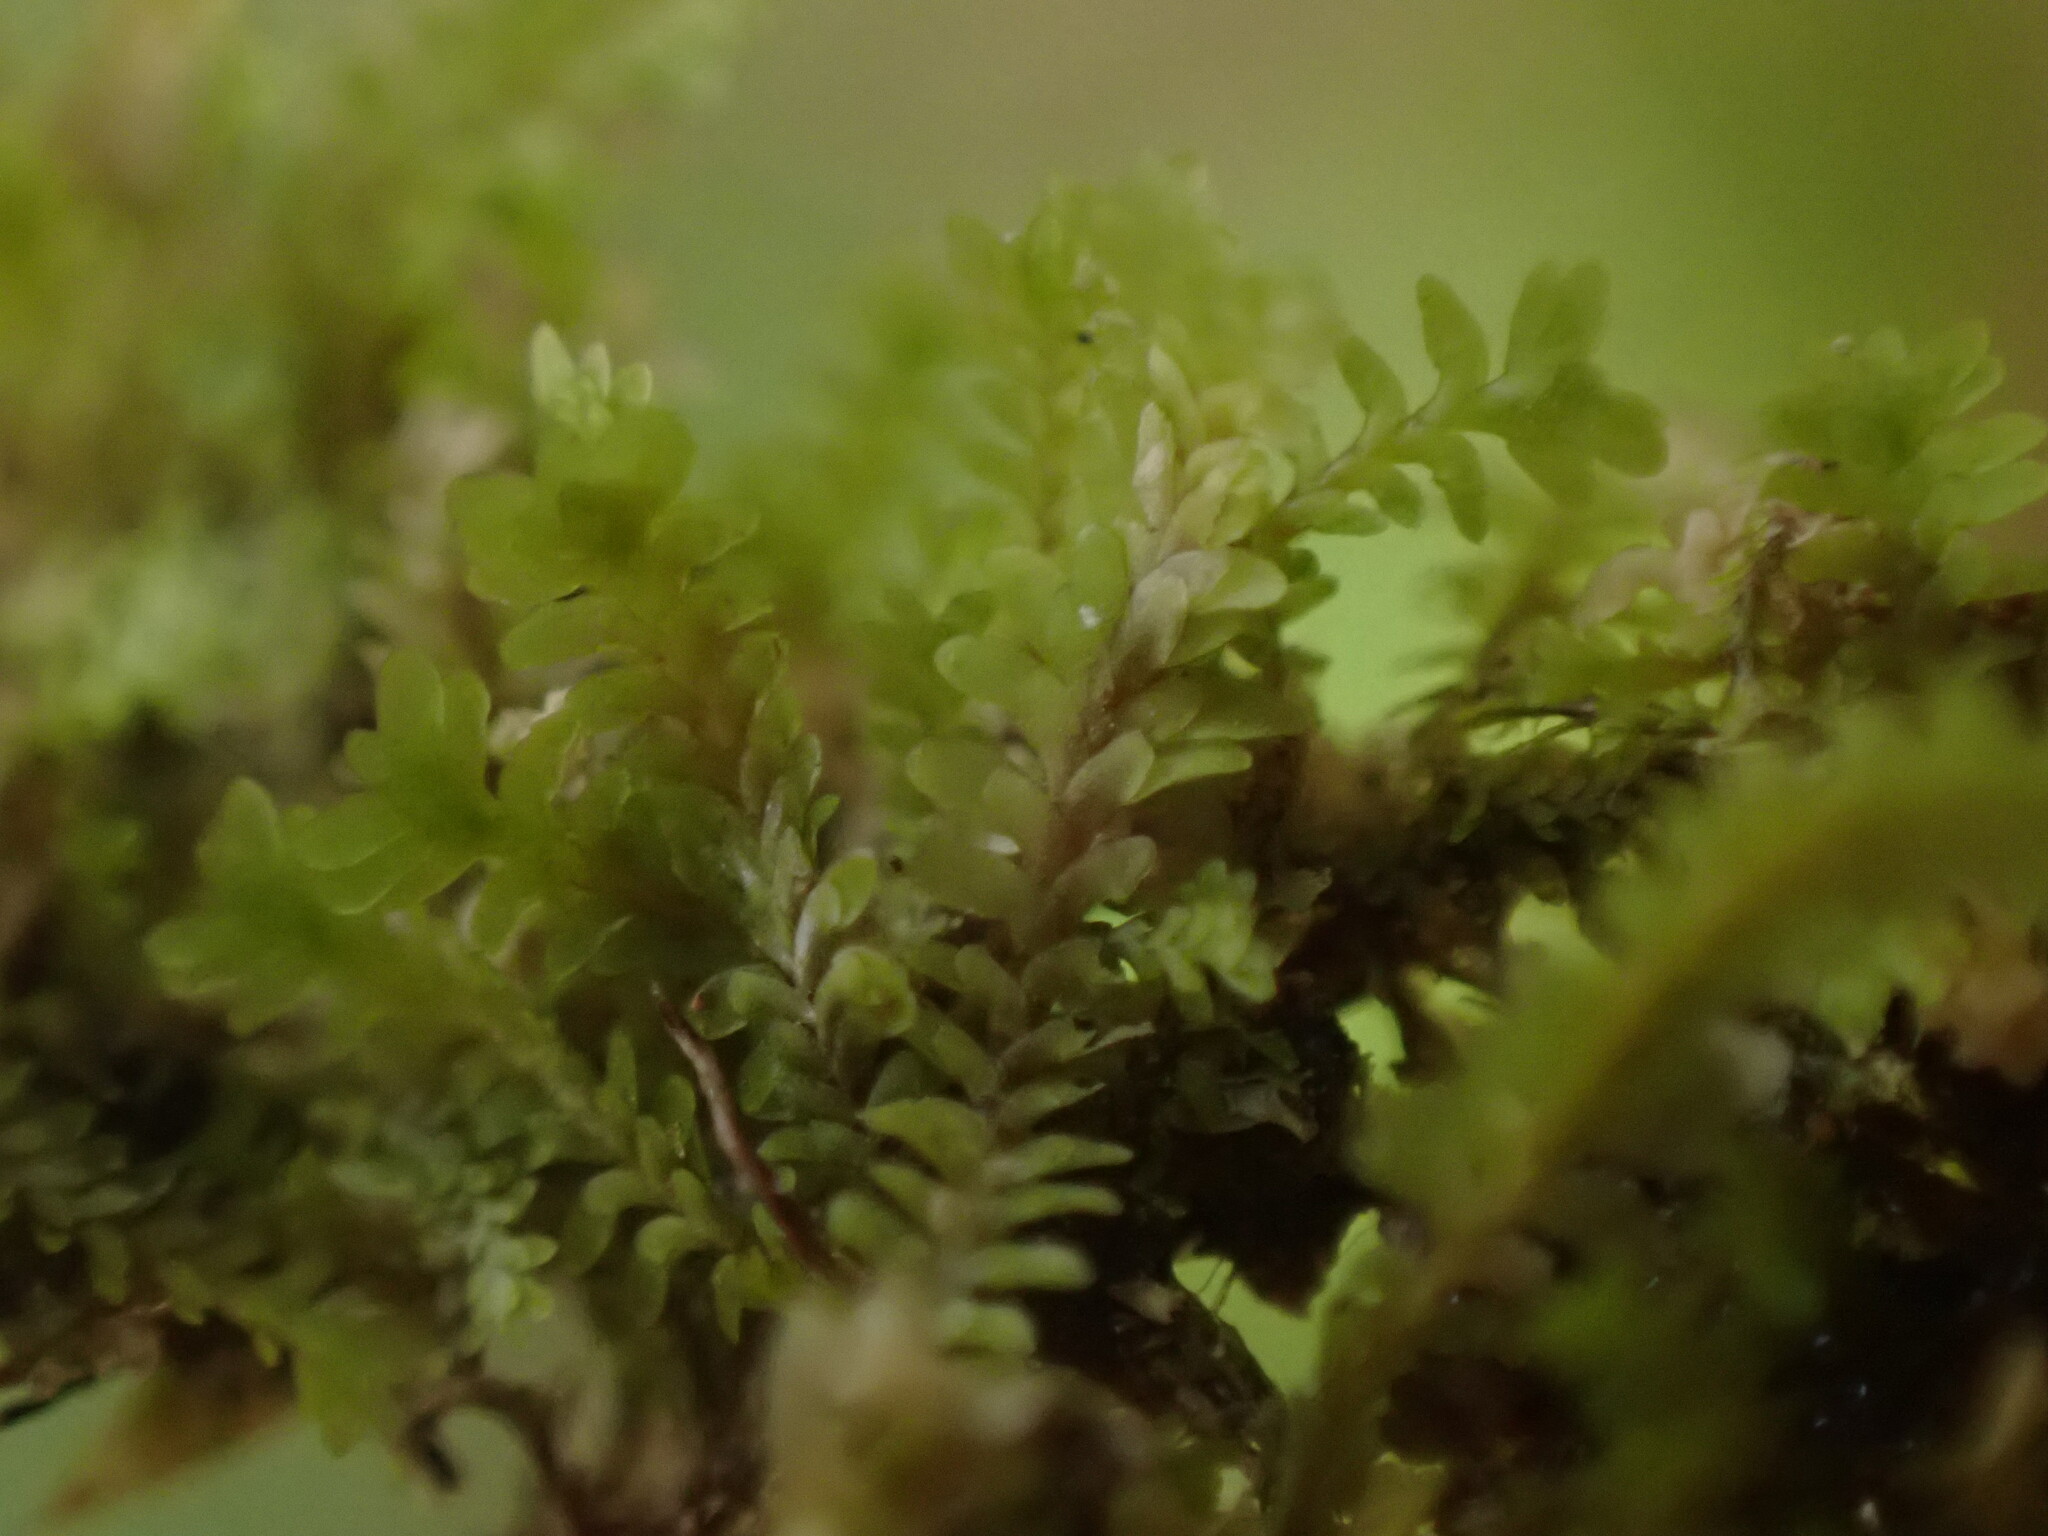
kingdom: Plantae
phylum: Marchantiophyta
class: Jungermanniopsida
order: Jungermanniales
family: Scapaniaceae
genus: Diplophyllum
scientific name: Diplophyllum taxifolium
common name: Alpine earwort
